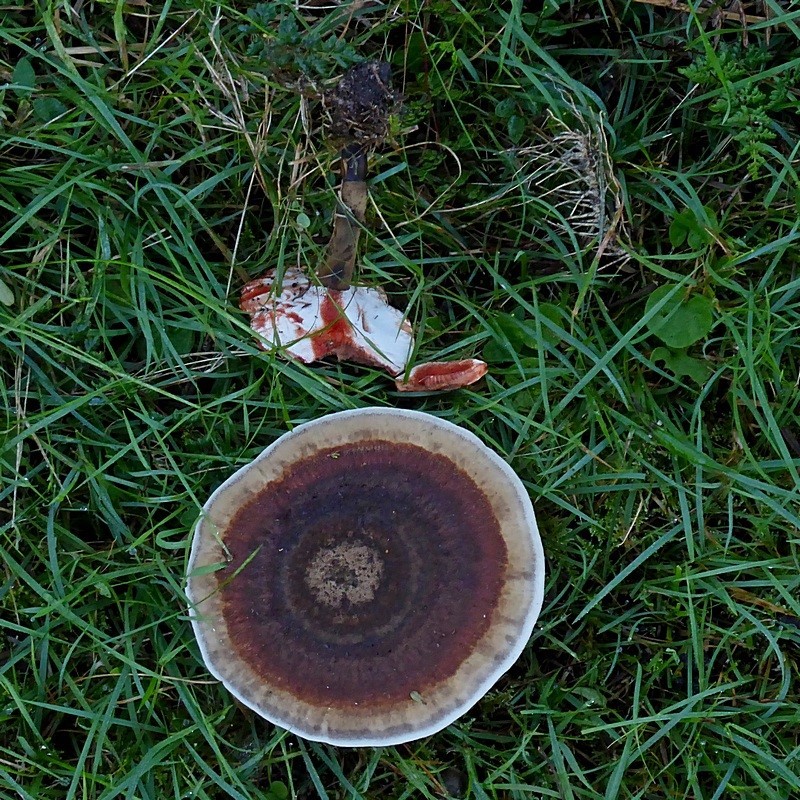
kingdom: Fungi
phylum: Basidiomycota
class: Agaricomycetes
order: Polyporales
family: Ganodermataceae
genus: Sanguinoderma
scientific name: Sanguinoderma rude
